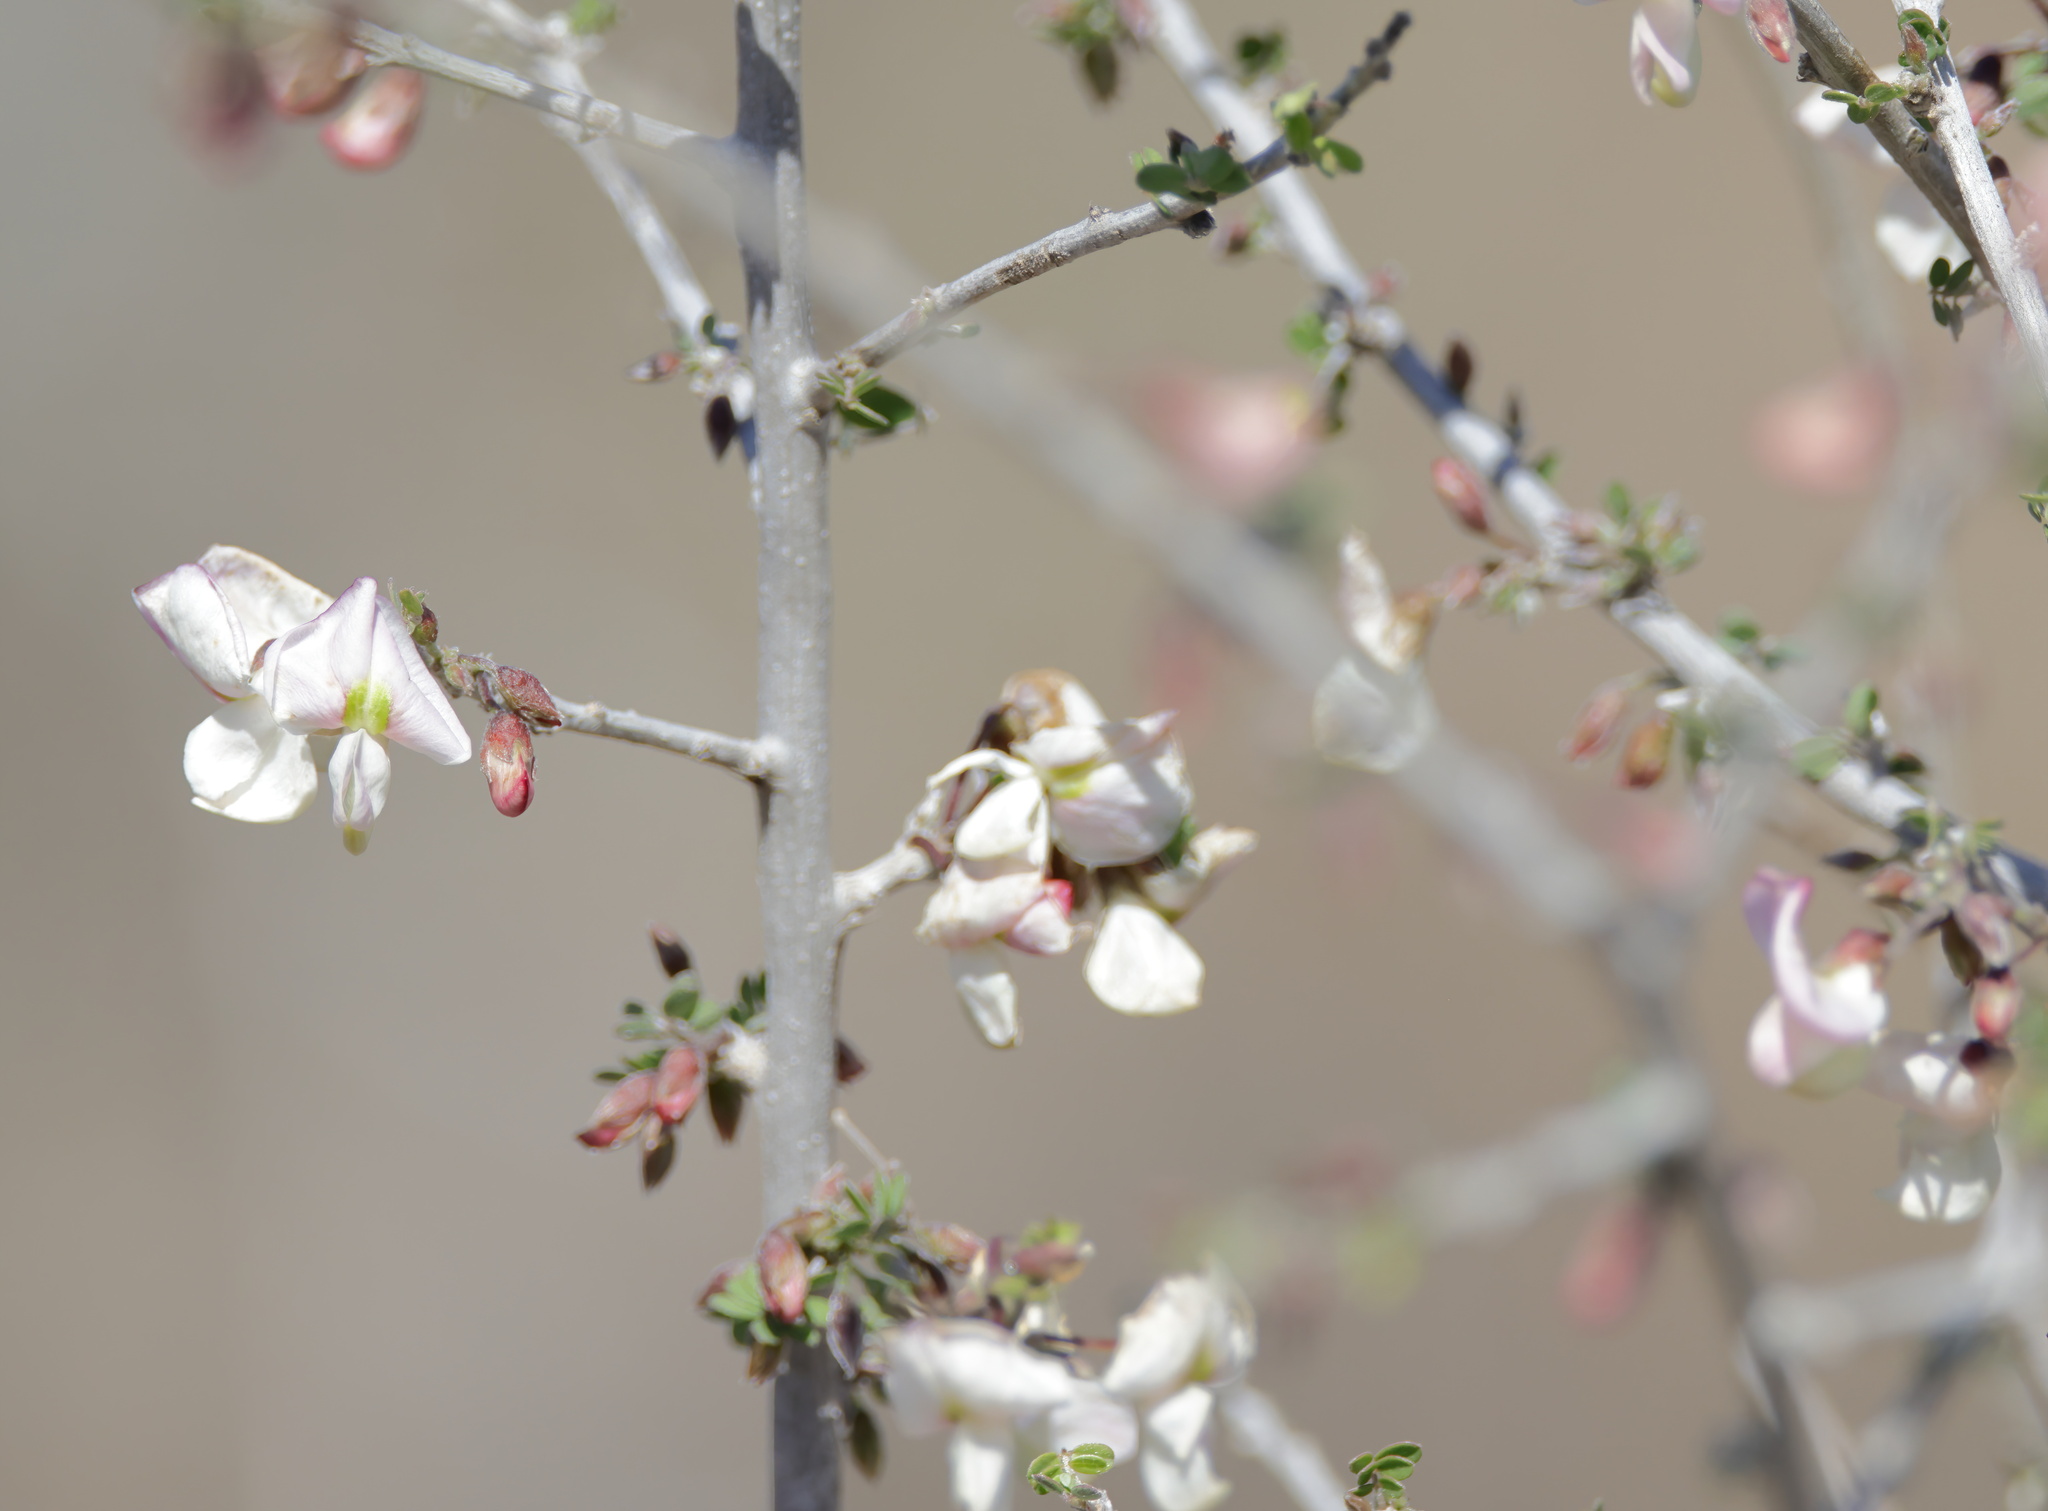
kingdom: Plantae
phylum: Tracheophyta
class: Magnoliopsida
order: Fabales
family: Fabaceae
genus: Coursetia
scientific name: Coursetia axillaris
